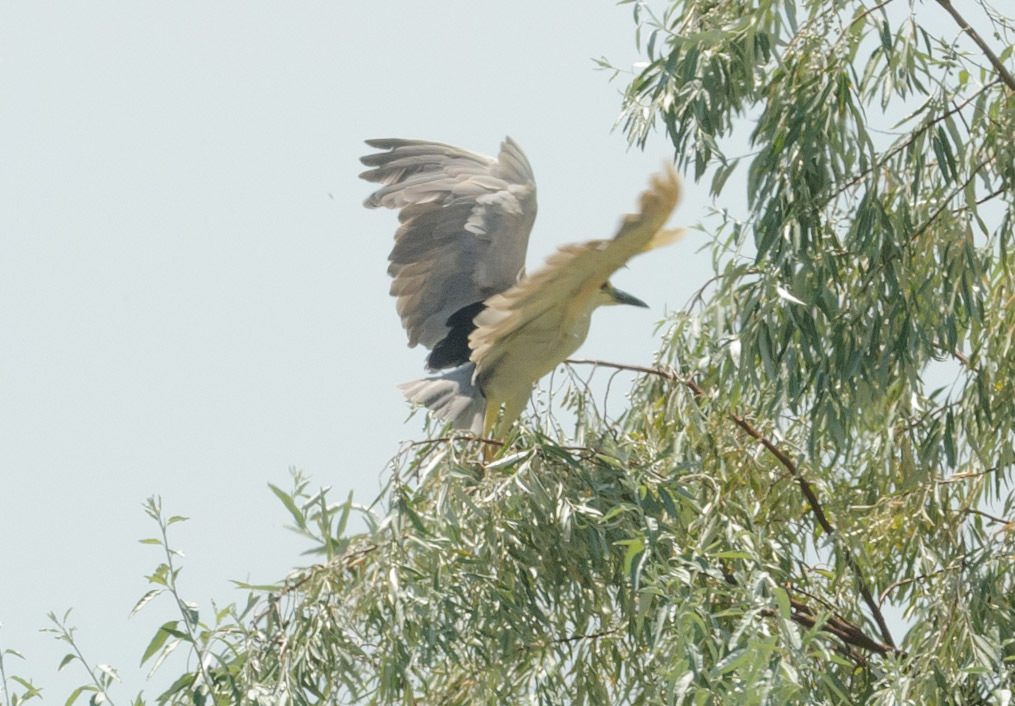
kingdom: Animalia
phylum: Chordata
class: Aves
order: Pelecaniformes
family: Ardeidae
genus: Nycticorax
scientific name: Nycticorax nycticorax
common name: Black-crowned night heron
